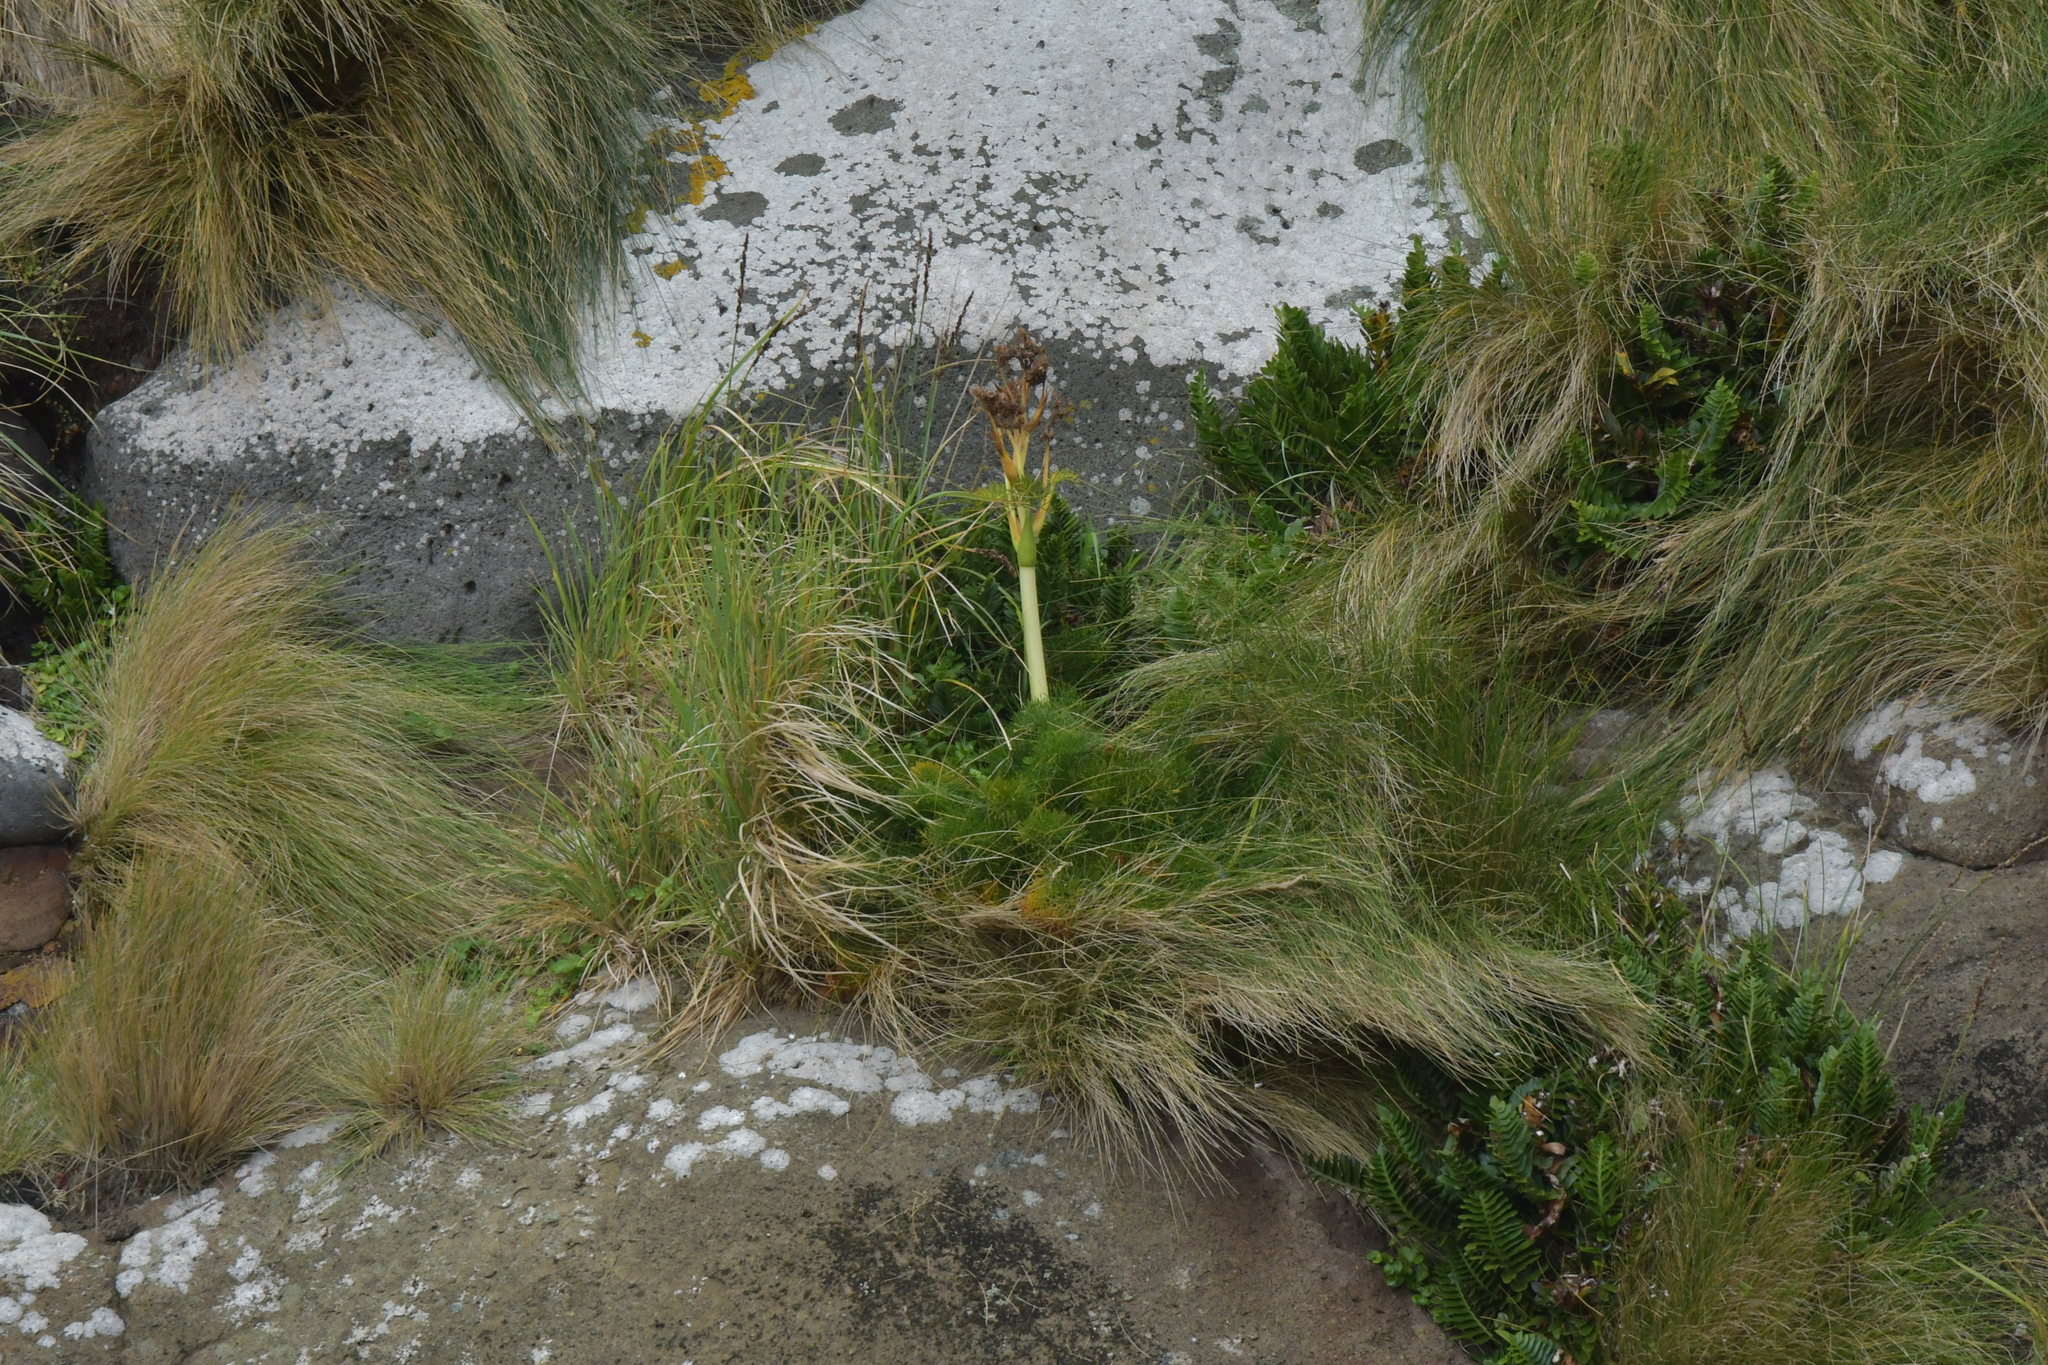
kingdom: Plantae
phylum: Tracheophyta
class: Magnoliopsida
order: Apiales
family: Apiaceae
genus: Anisotome
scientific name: Anisotome antipoda
